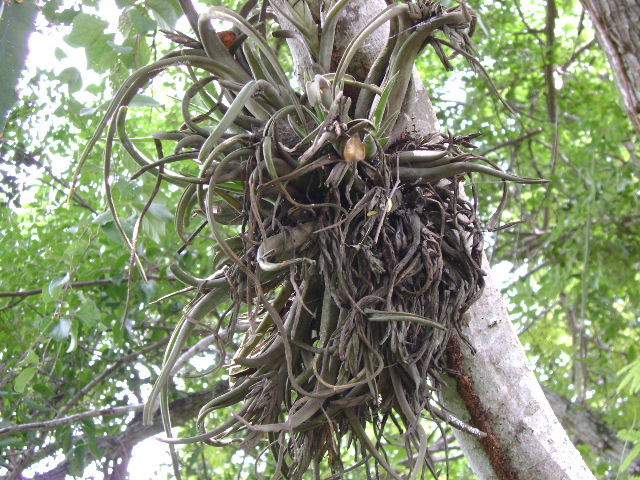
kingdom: Plantae
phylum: Tracheophyta
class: Liliopsida
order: Poales
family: Bromeliaceae
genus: Tillandsia
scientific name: Tillandsia paucifolia
